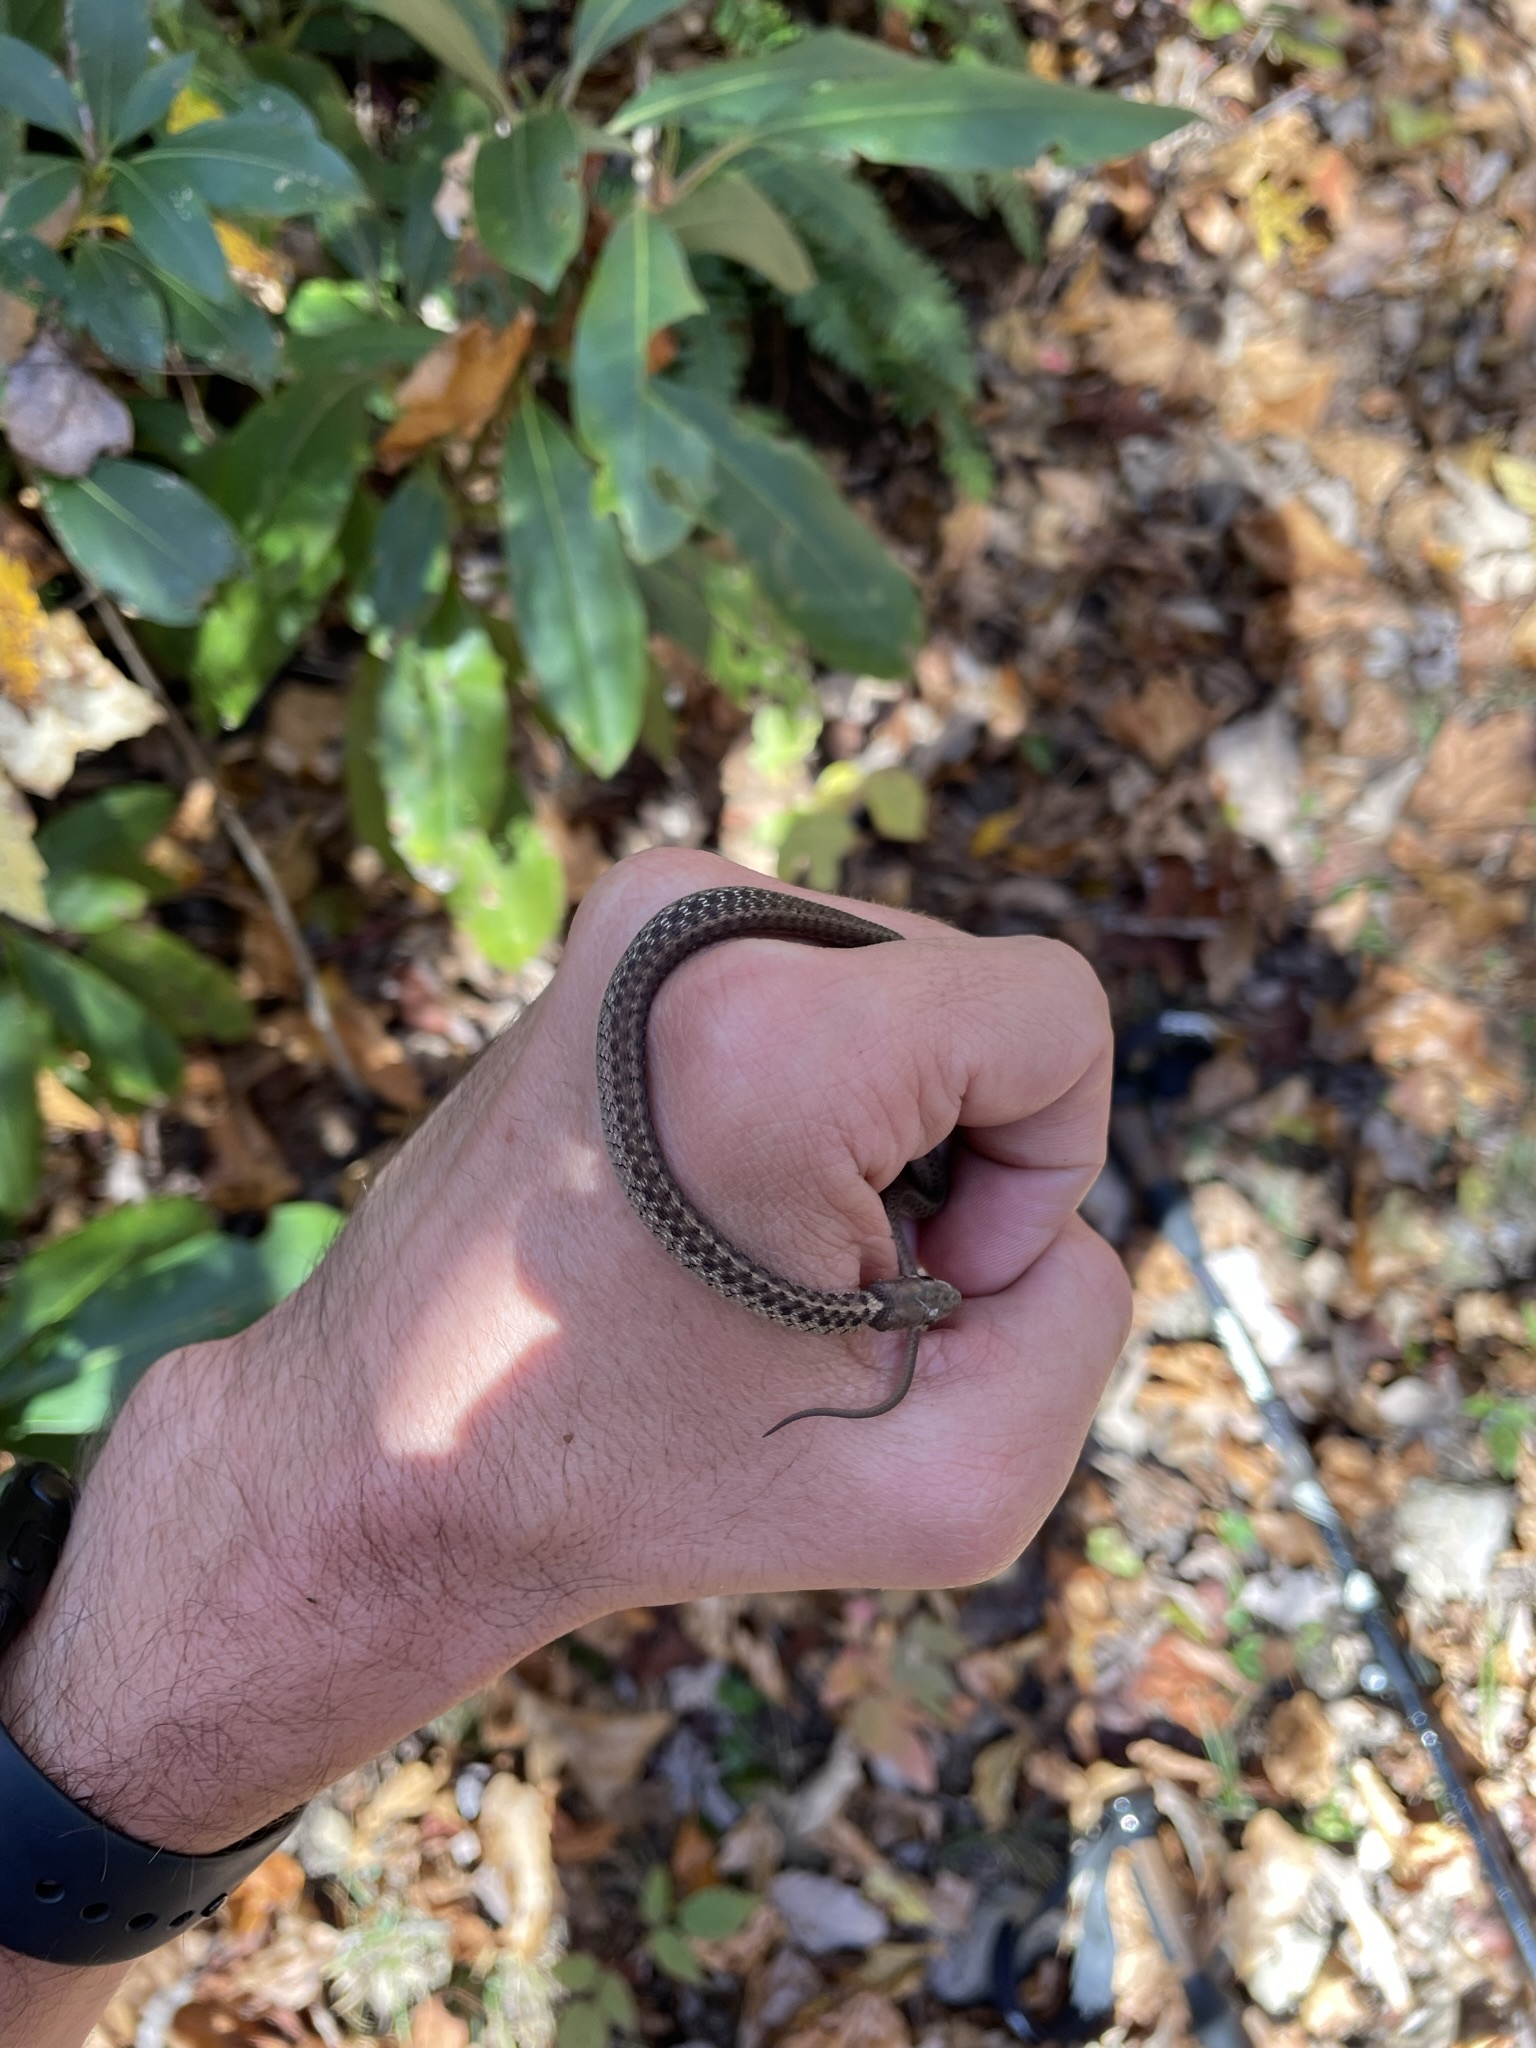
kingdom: Animalia
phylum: Chordata
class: Squamata
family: Colubridae
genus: Thamnophis
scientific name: Thamnophis sirtalis
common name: Common garter snake
